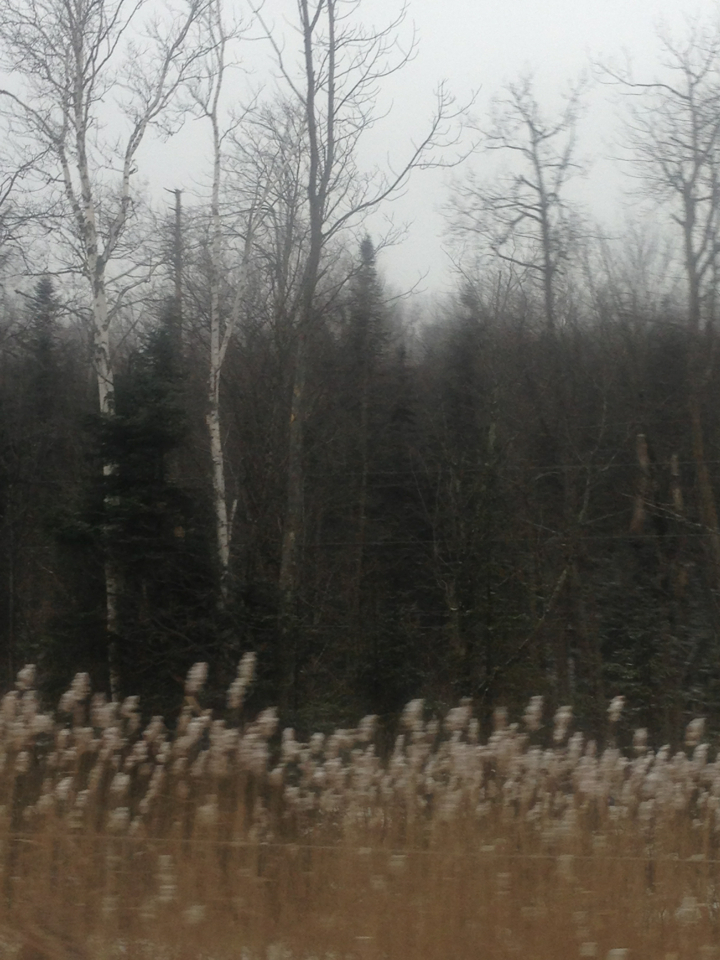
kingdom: Plantae
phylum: Tracheophyta
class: Liliopsida
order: Poales
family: Poaceae
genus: Phragmites
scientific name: Phragmites australis
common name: Common reed
